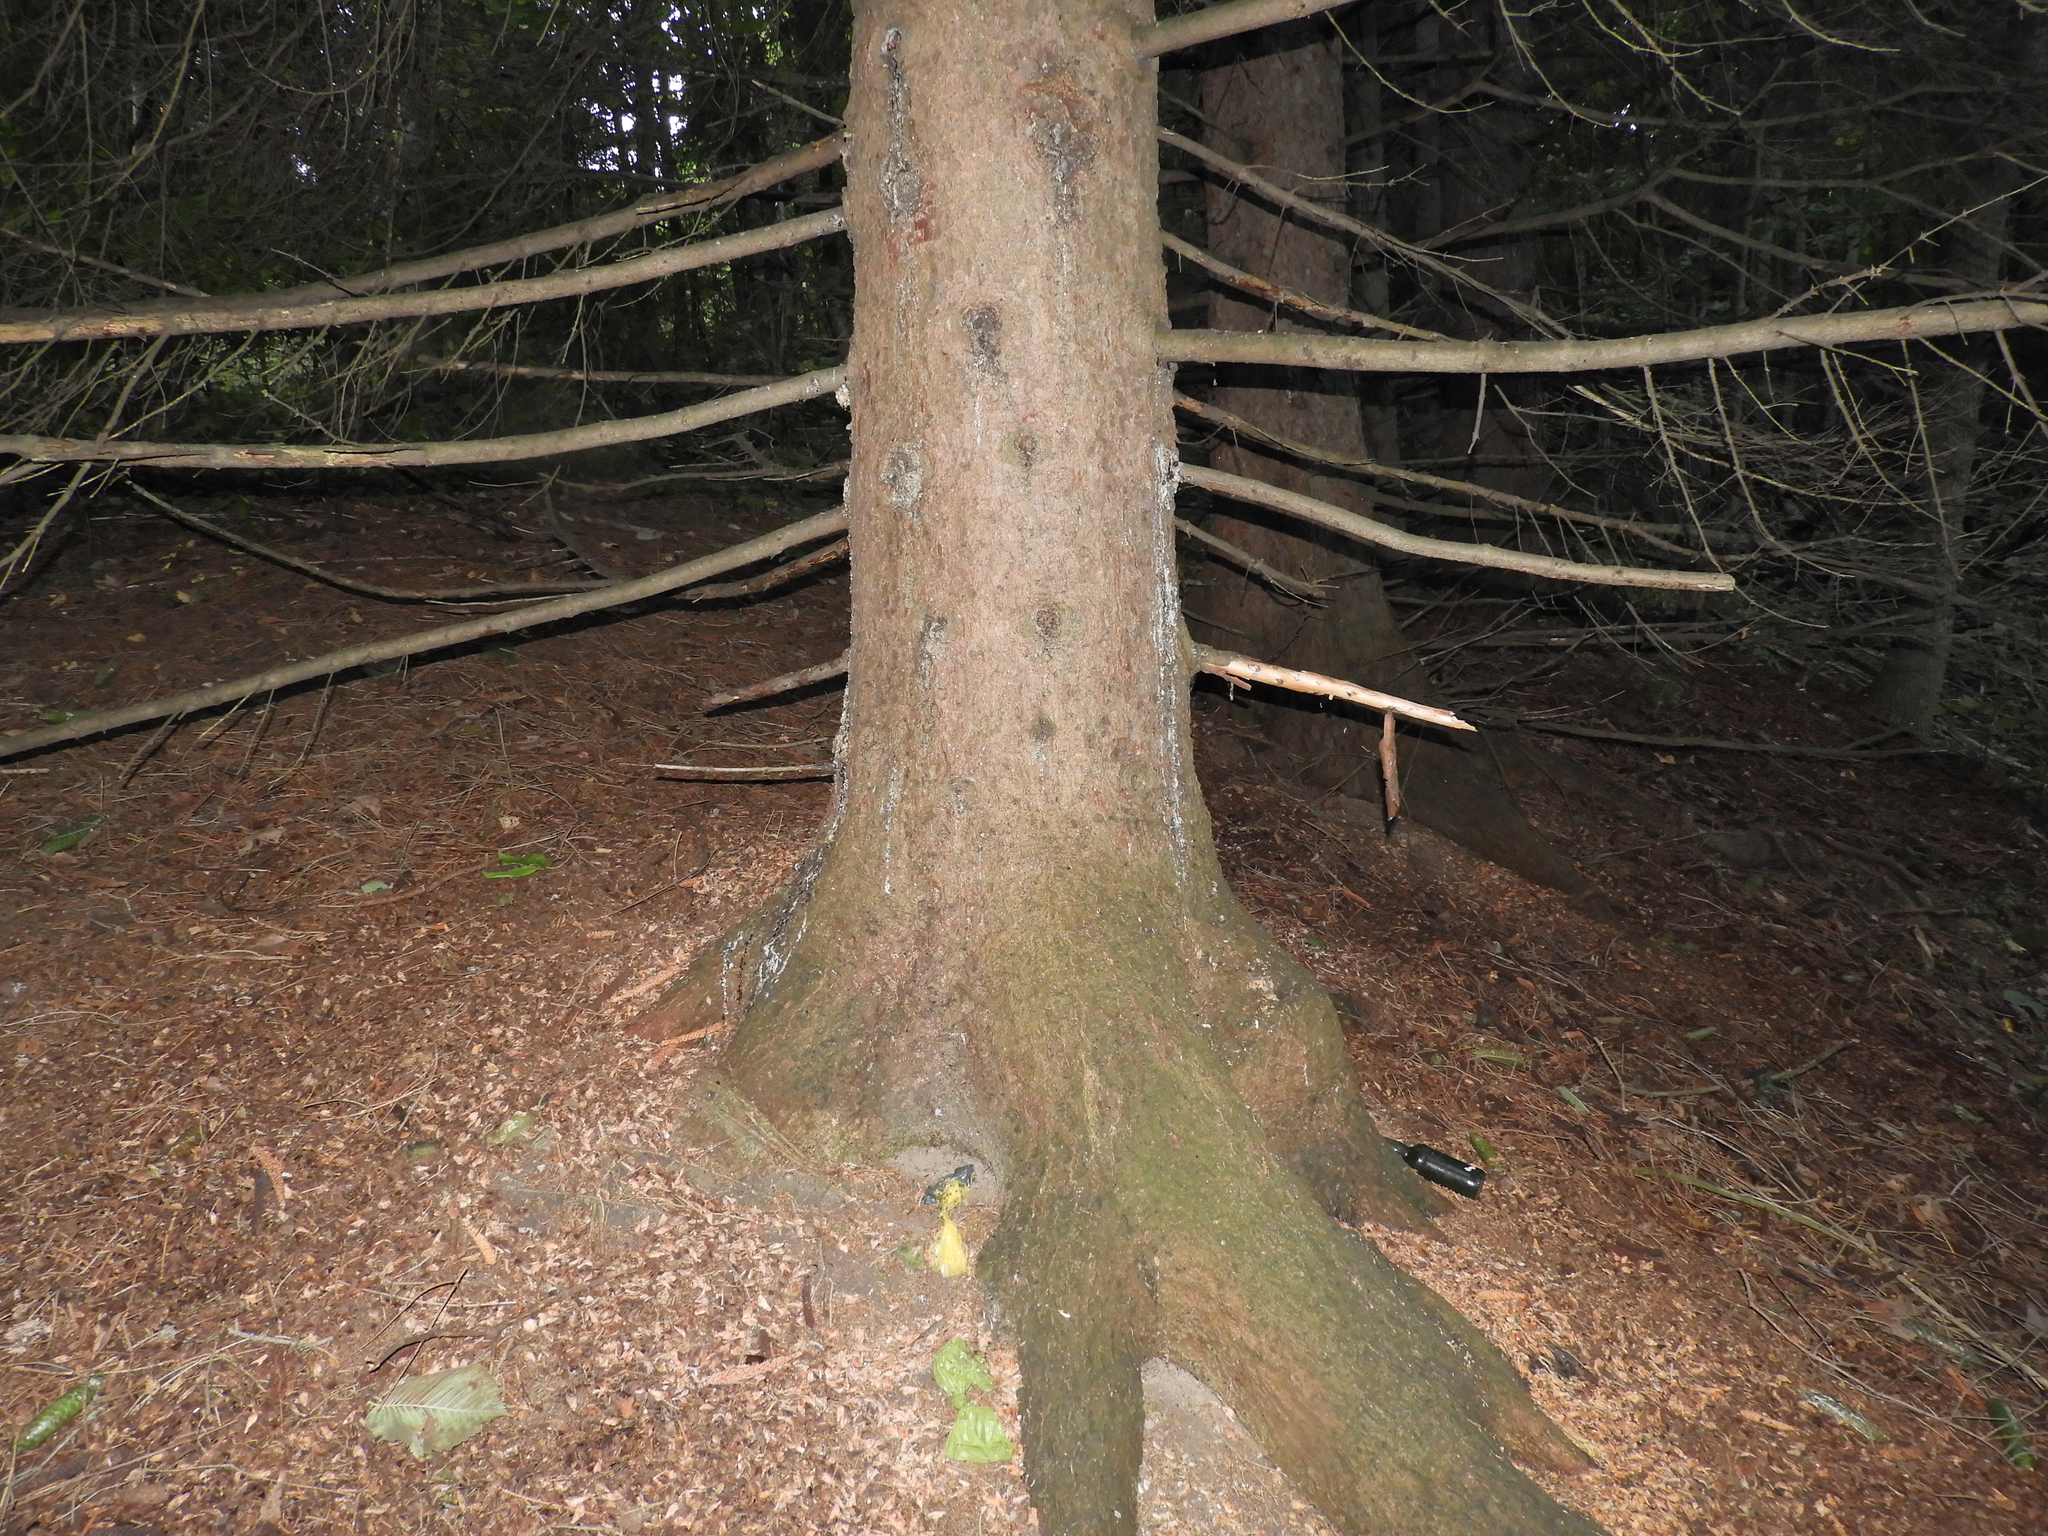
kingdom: Plantae
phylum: Tracheophyta
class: Pinopsida
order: Pinales
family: Pinaceae
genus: Picea
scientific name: Picea abies
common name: Norway spruce
